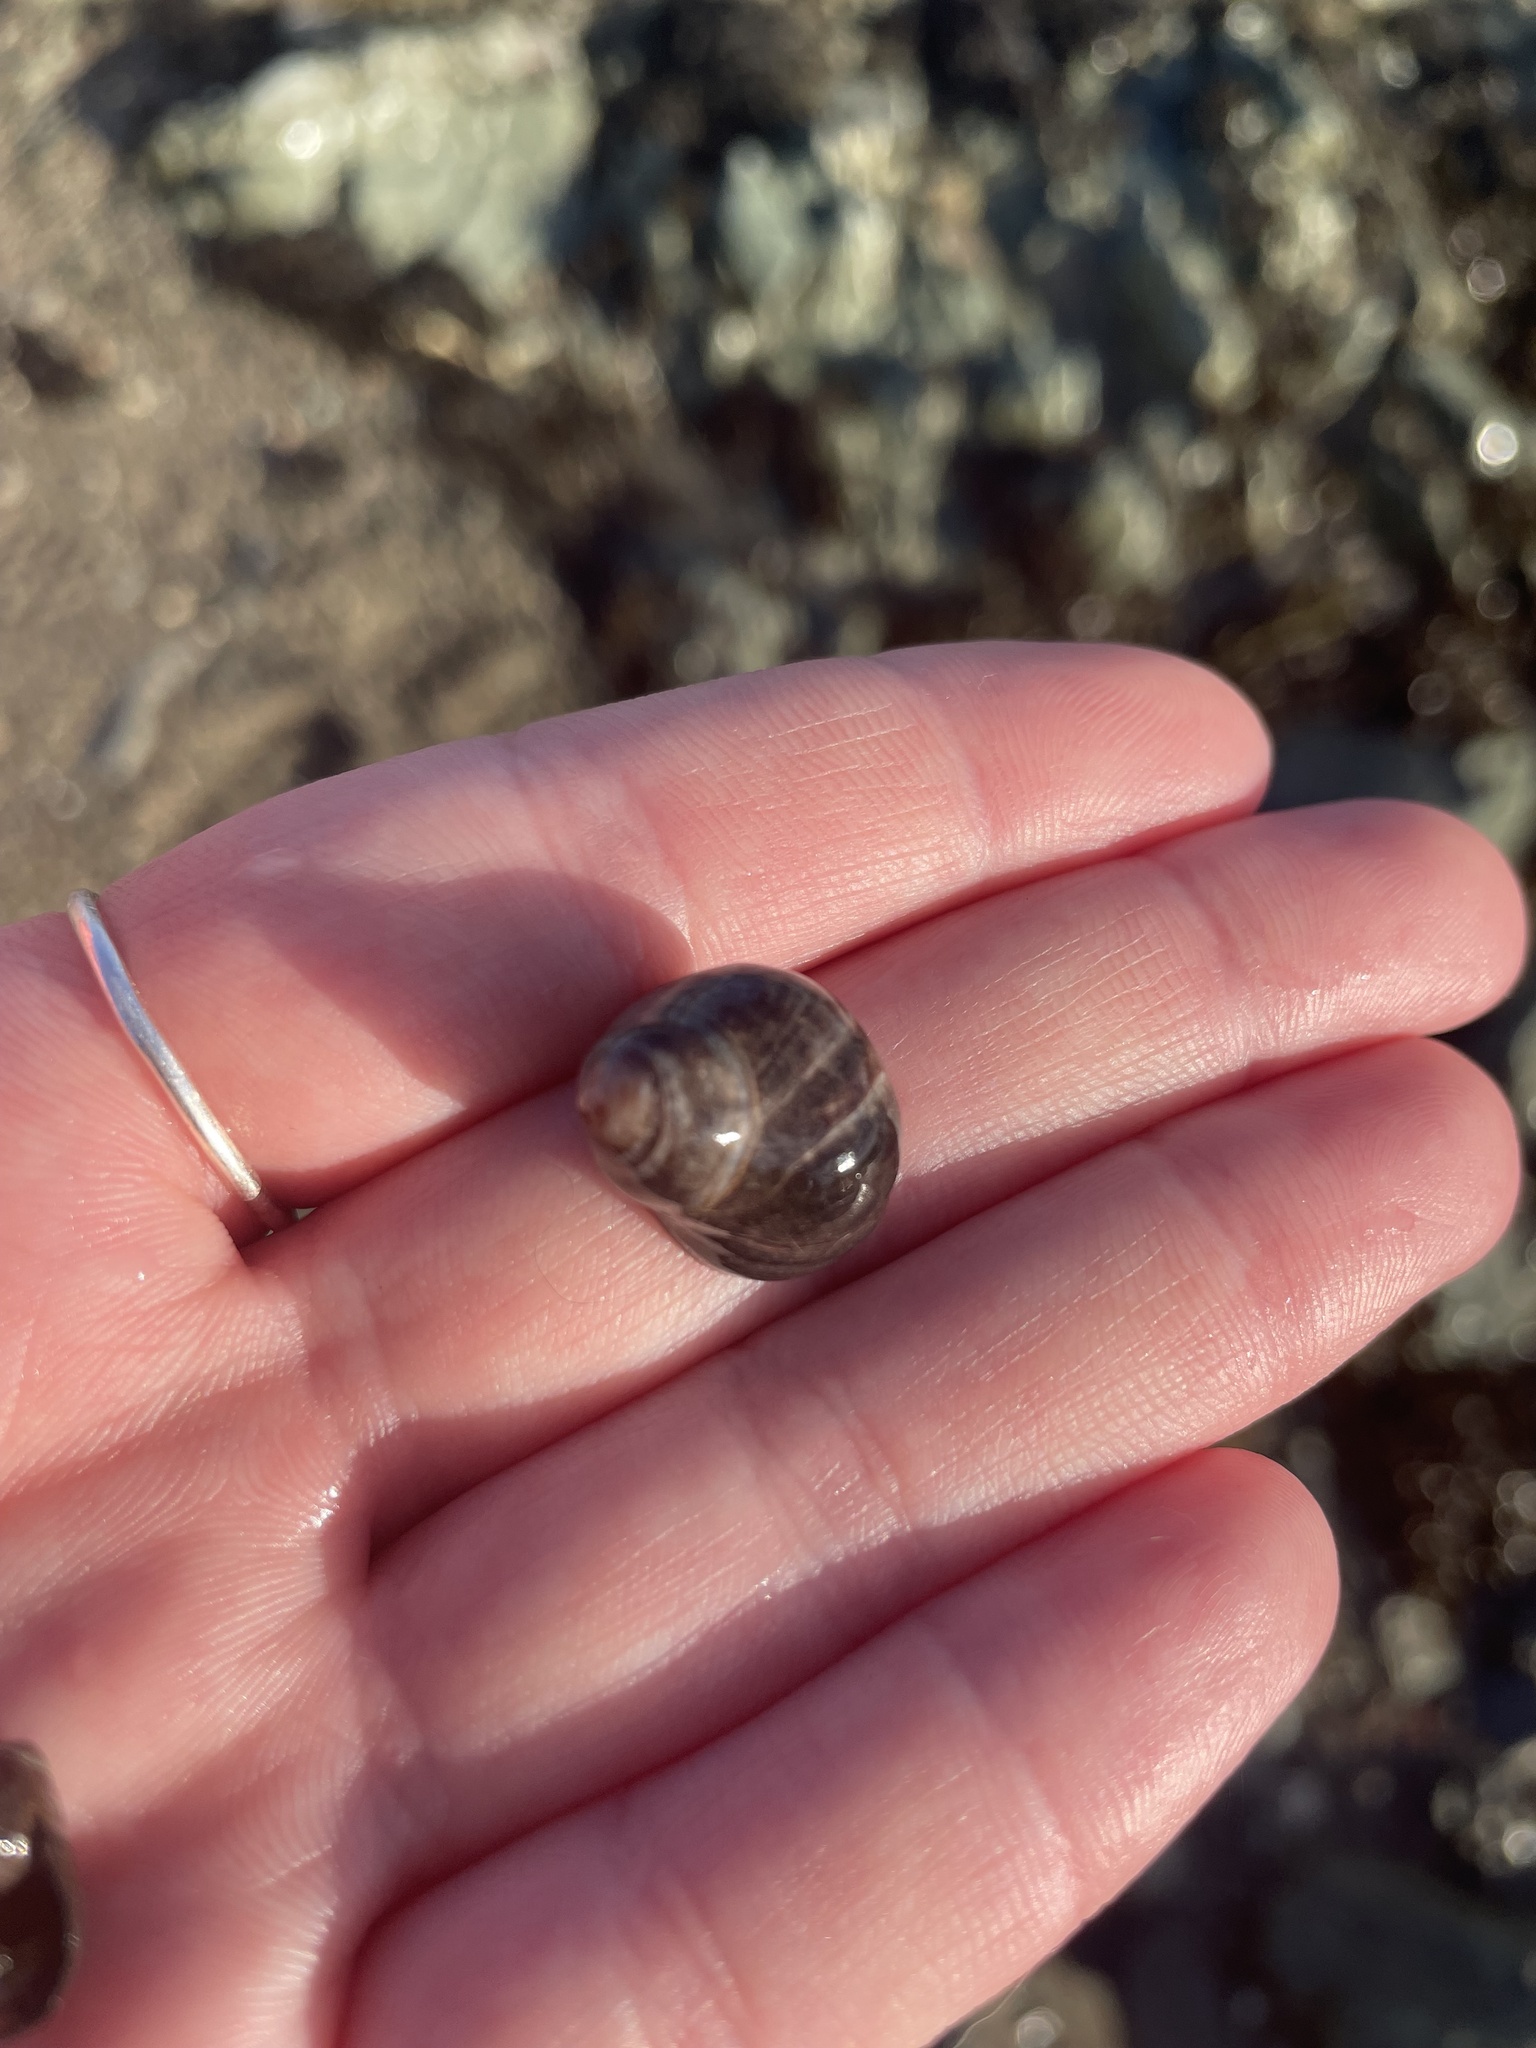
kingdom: Animalia
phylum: Mollusca
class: Gastropoda
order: Littorinimorpha
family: Littorinidae
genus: Littorina
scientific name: Littorina littorea
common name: Common periwinkle
